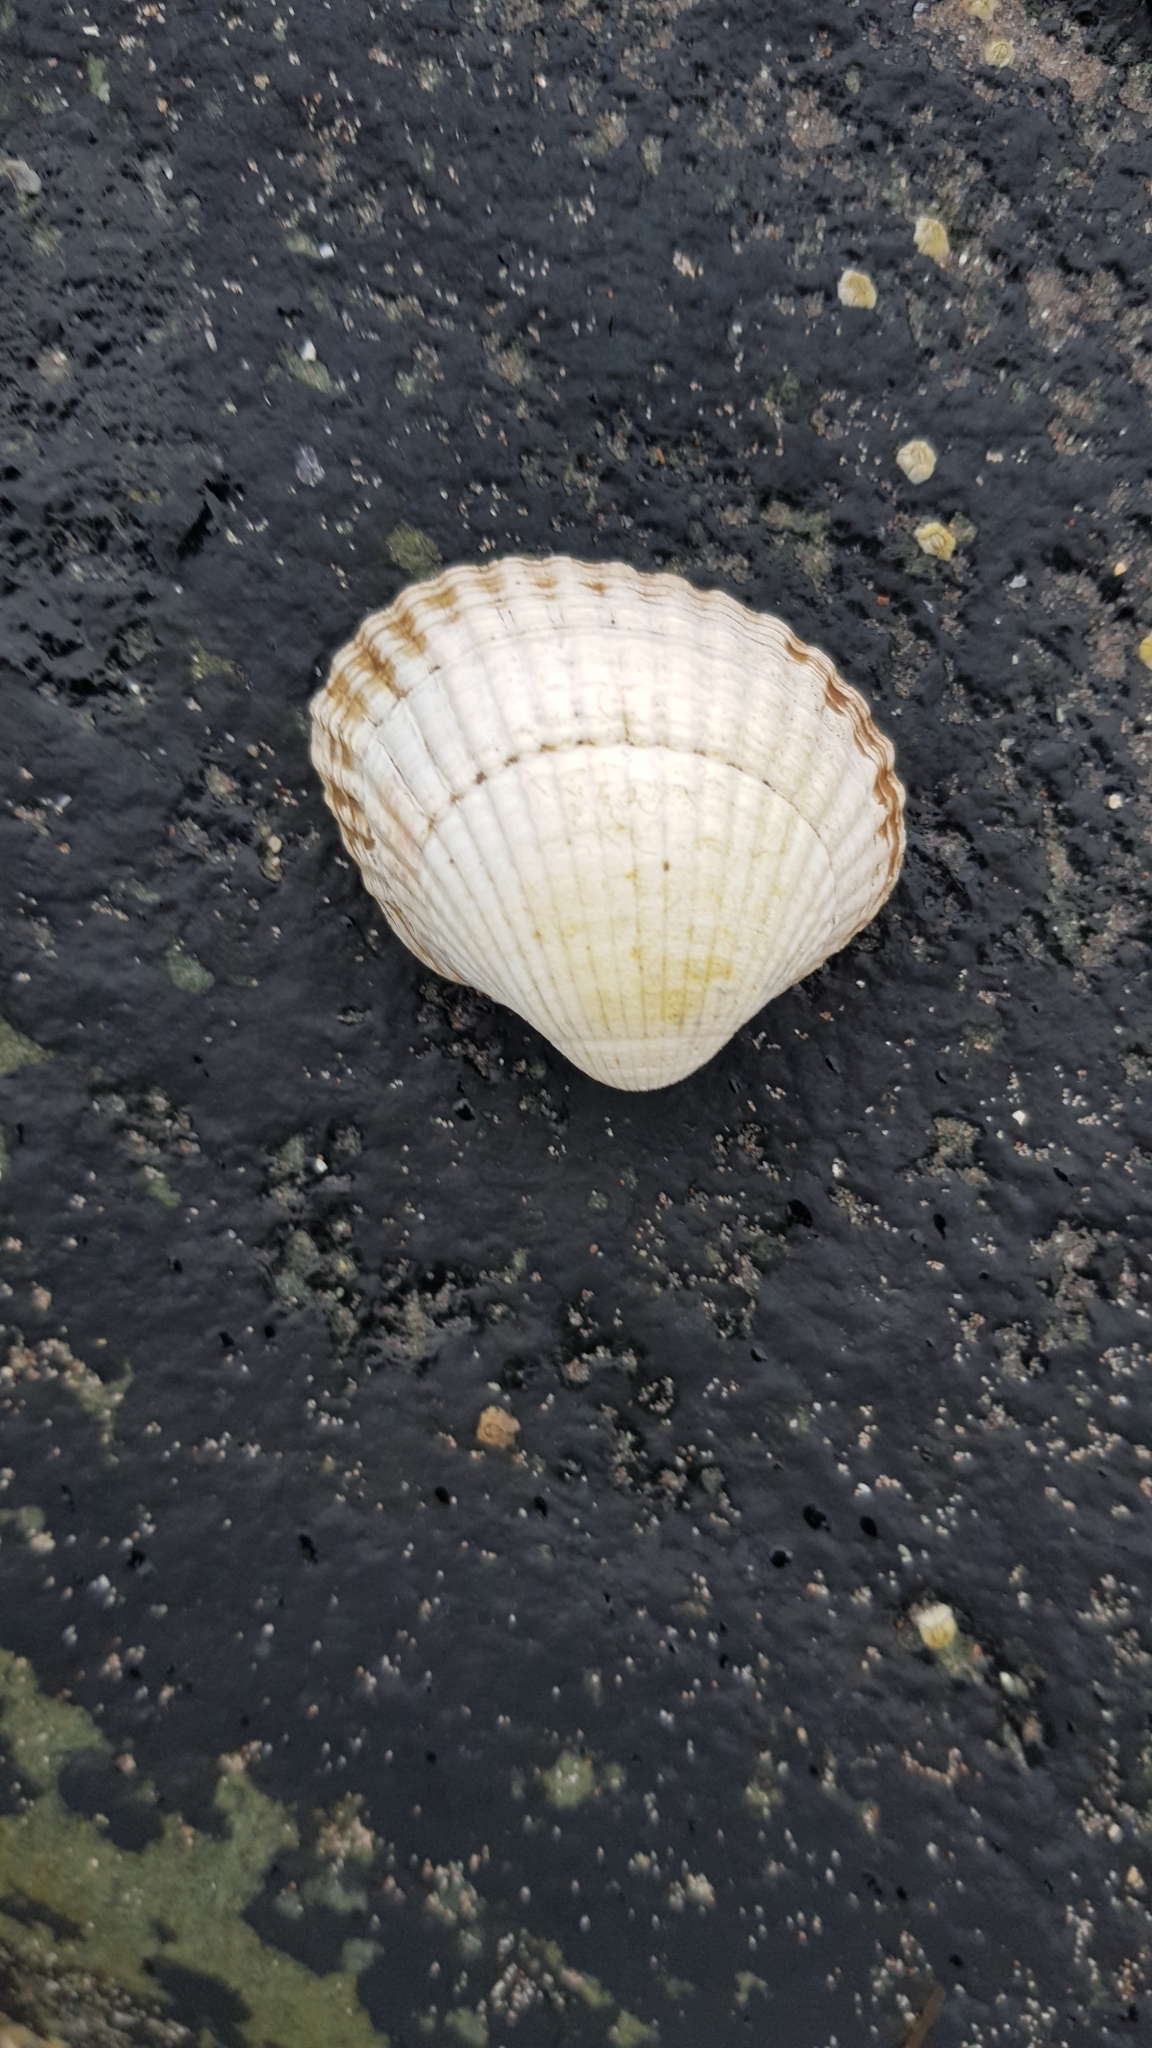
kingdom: Animalia
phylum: Mollusca
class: Bivalvia
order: Cardiida
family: Cardiidae
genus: Cerastoderma
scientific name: Cerastoderma edule
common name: Common cockle
